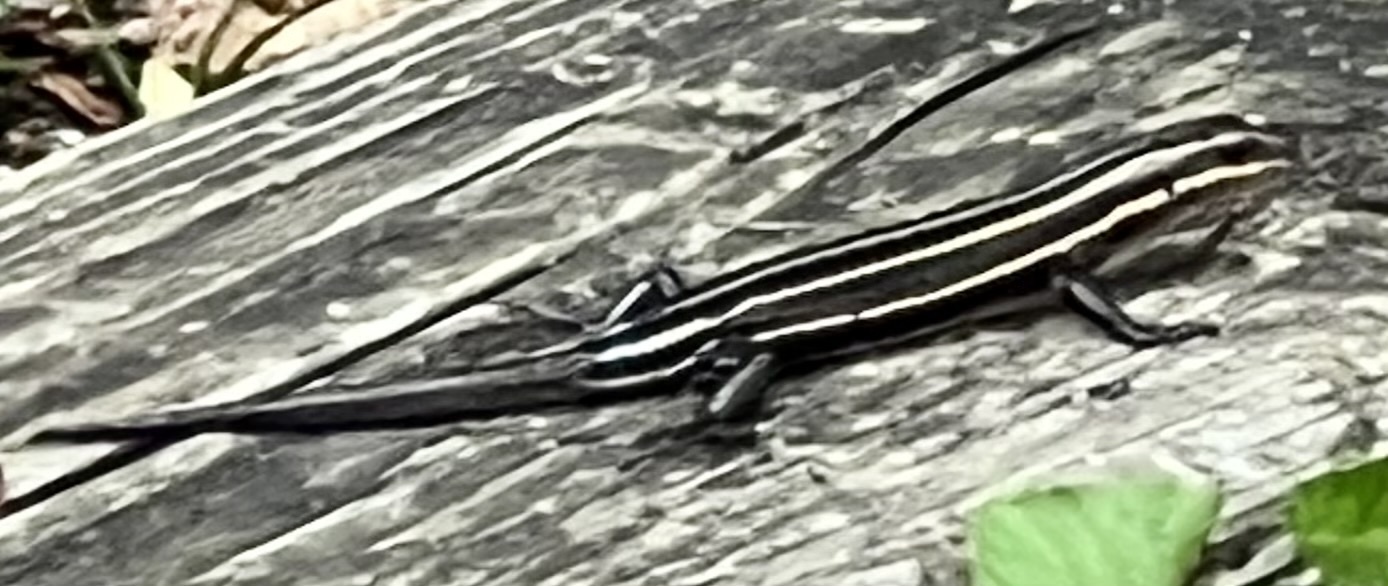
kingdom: Animalia
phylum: Chordata
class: Squamata
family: Scincidae
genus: Plestiodon
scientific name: Plestiodon fasciatus
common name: Five-lined skink
